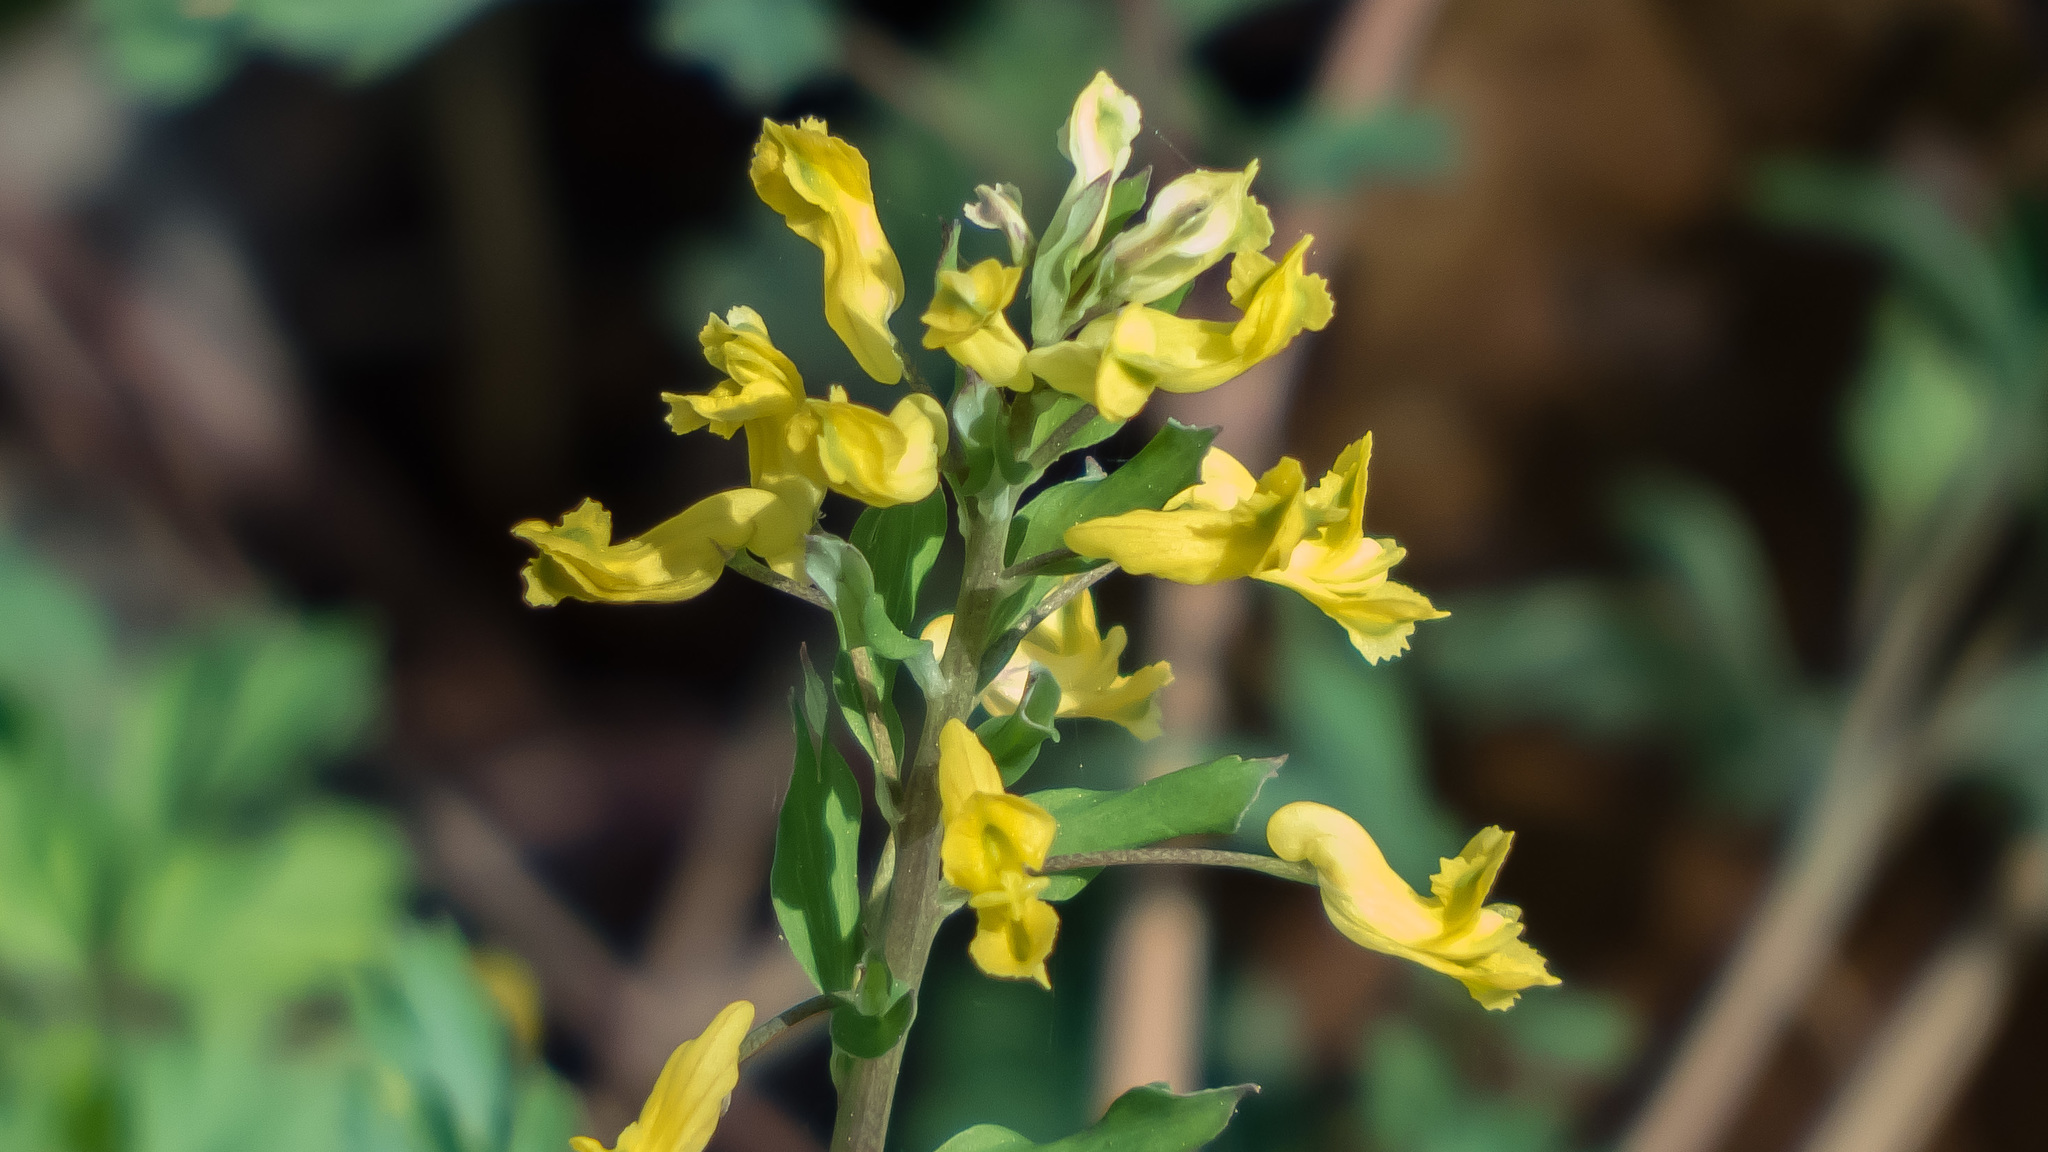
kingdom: Plantae
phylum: Tracheophyta
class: Magnoliopsida
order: Ranunculales
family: Papaveraceae
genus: Corydalis
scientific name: Corydalis flavula
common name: Yellow corydalis
